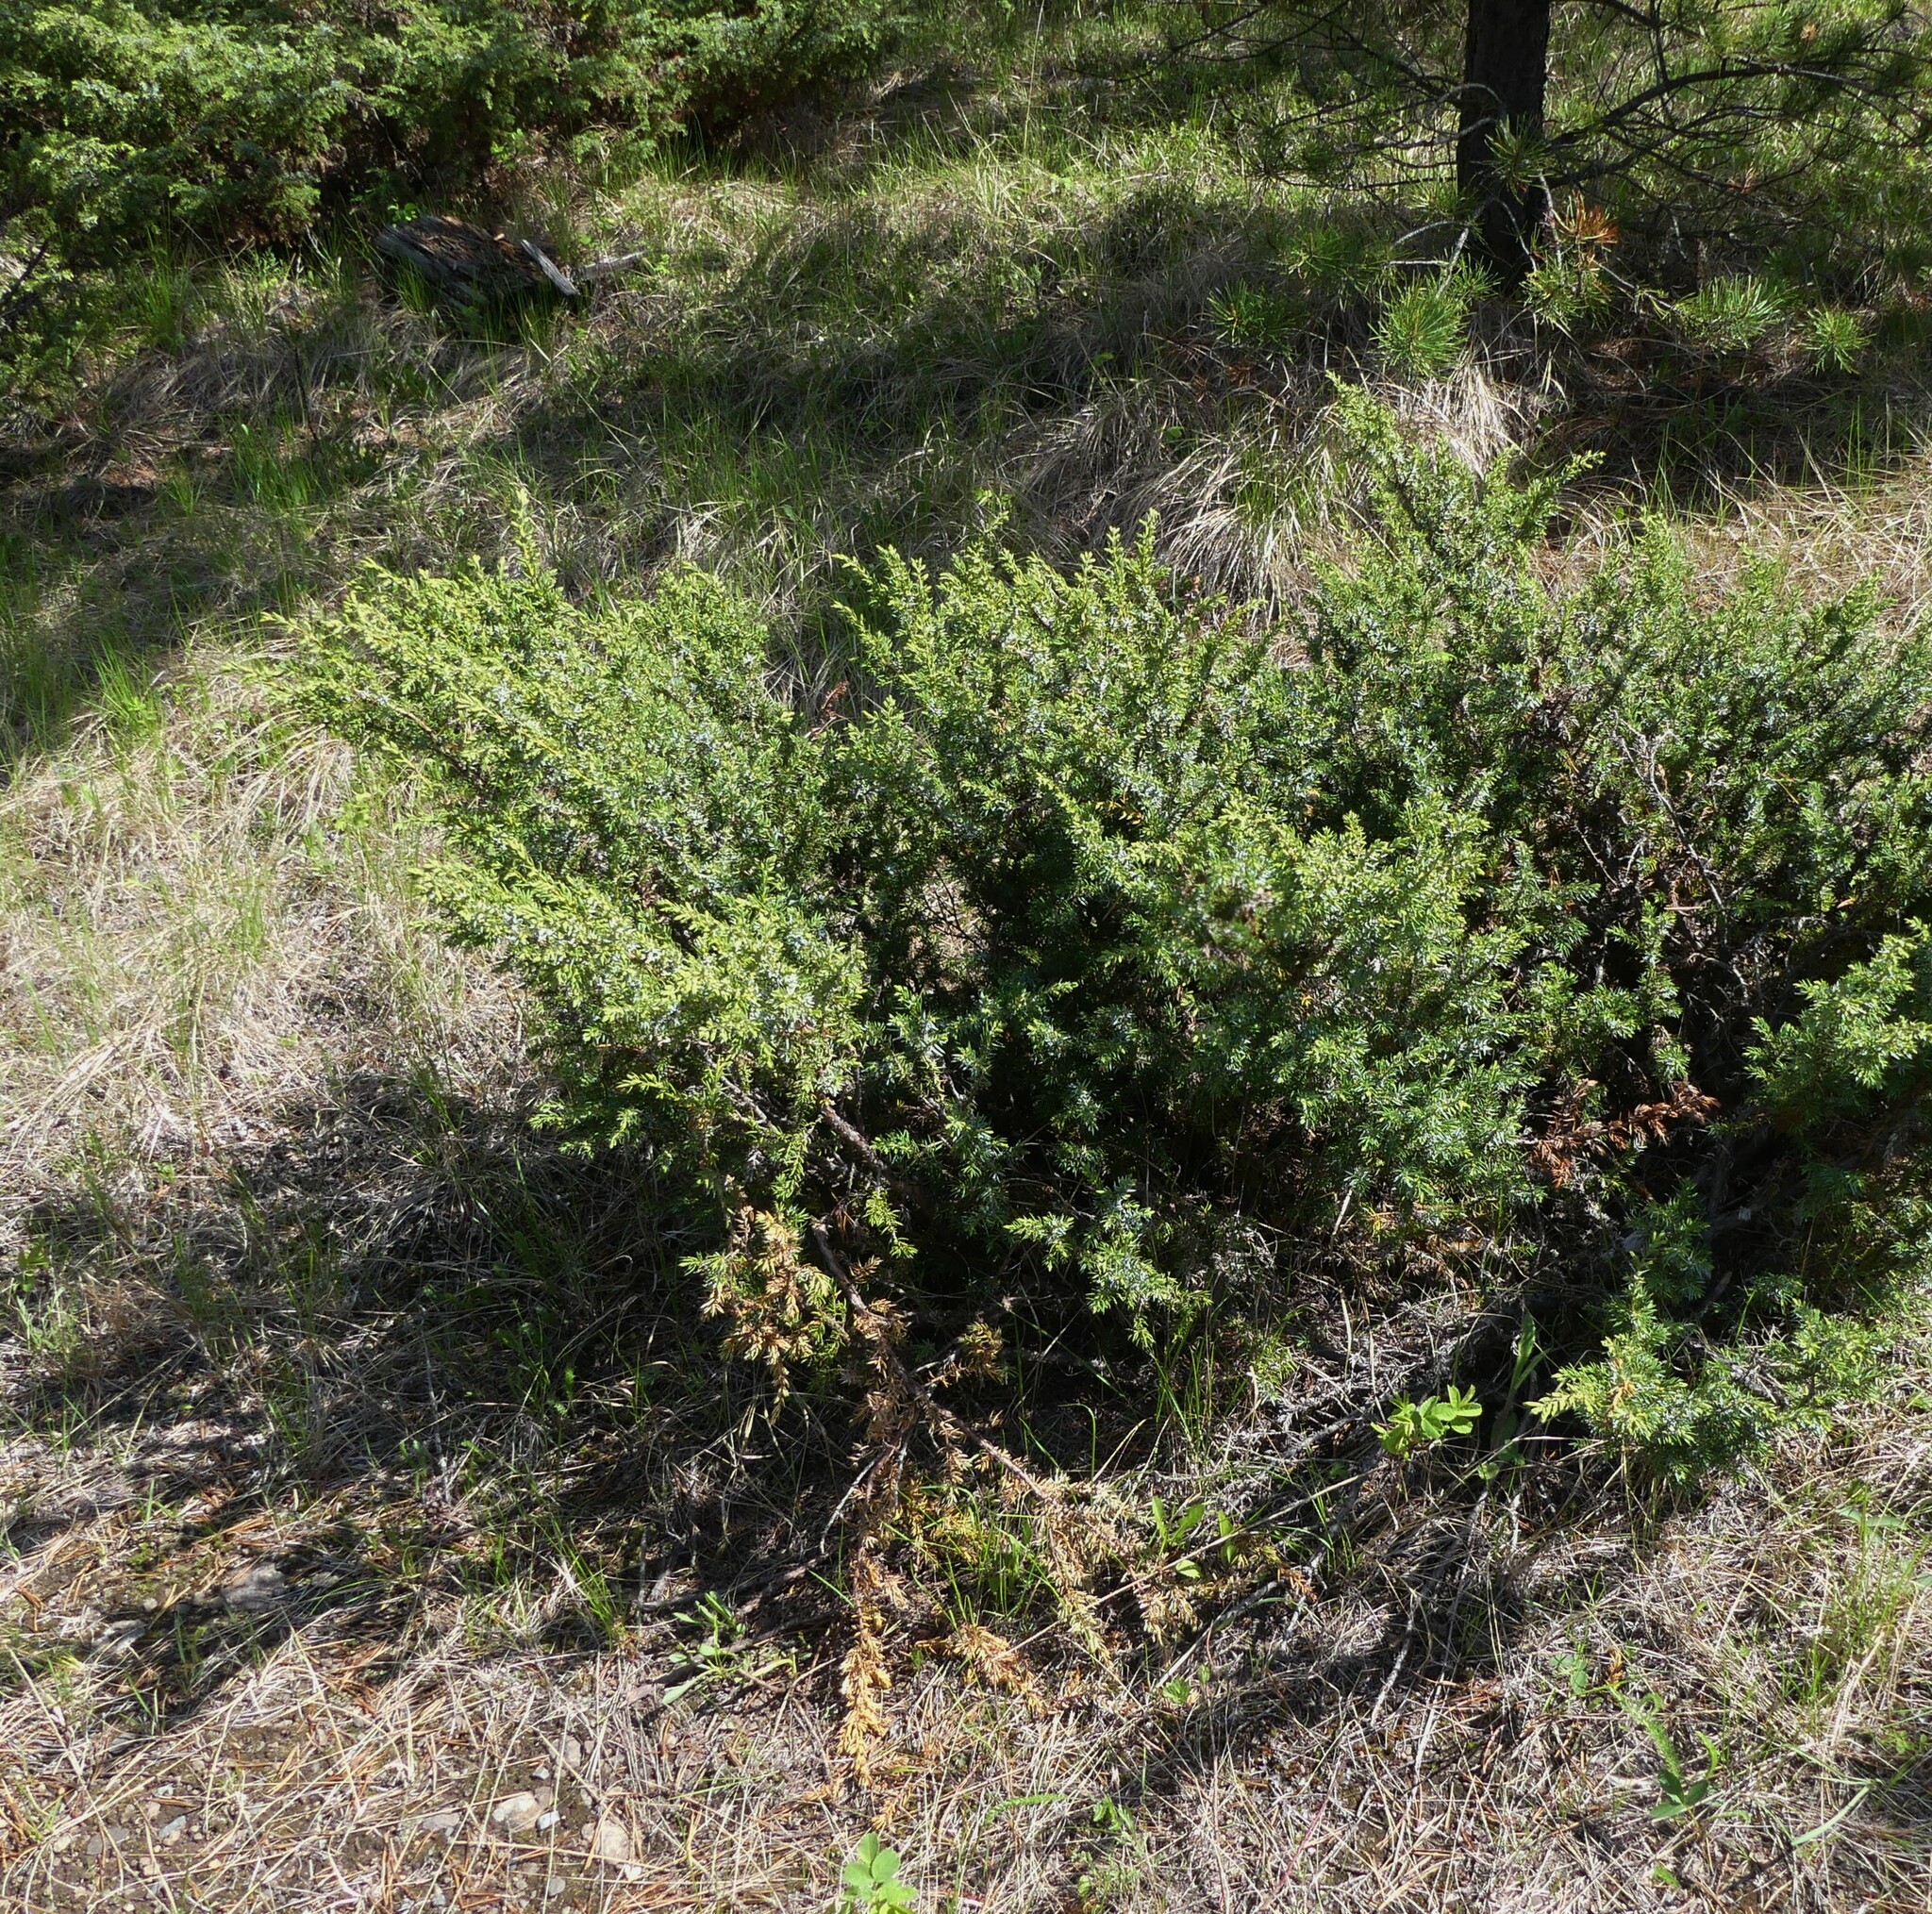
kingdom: Plantae
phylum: Tracheophyta
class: Pinopsida
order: Pinales
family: Cupressaceae
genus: Juniperus
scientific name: Juniperus communis
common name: Common juniper
